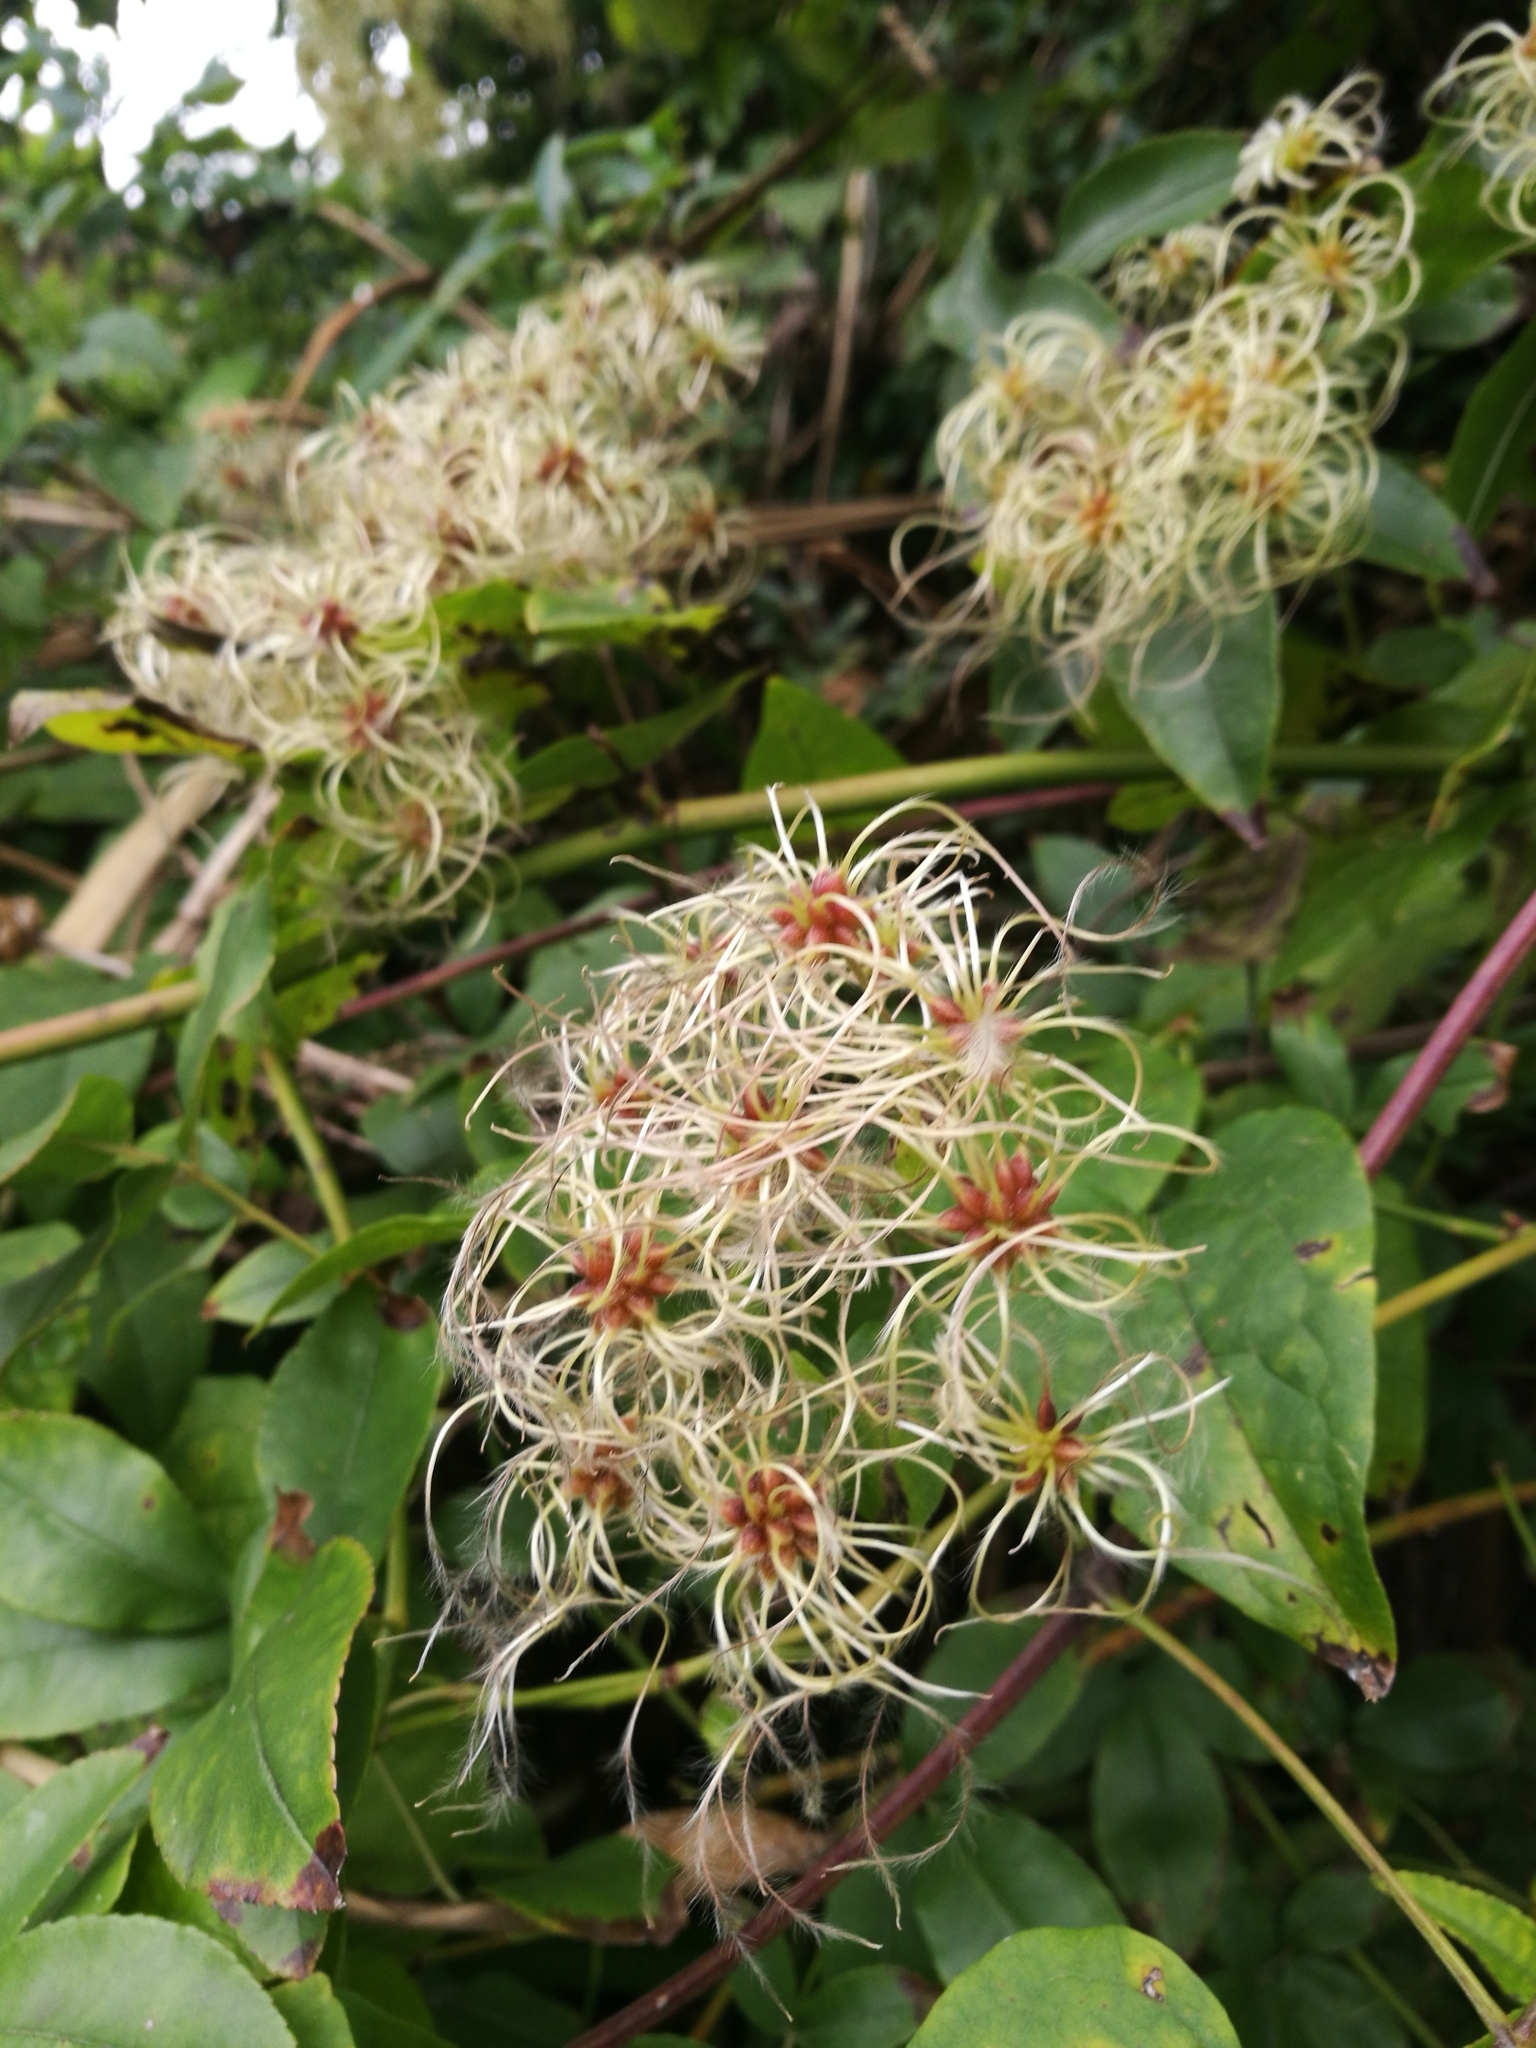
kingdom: Plantae
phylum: Tracheophyta
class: Magnoliopsida
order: Ranunculales
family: Ranunculaceae
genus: Clematis
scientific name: Clematis vitalba
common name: Evergreen clematis
